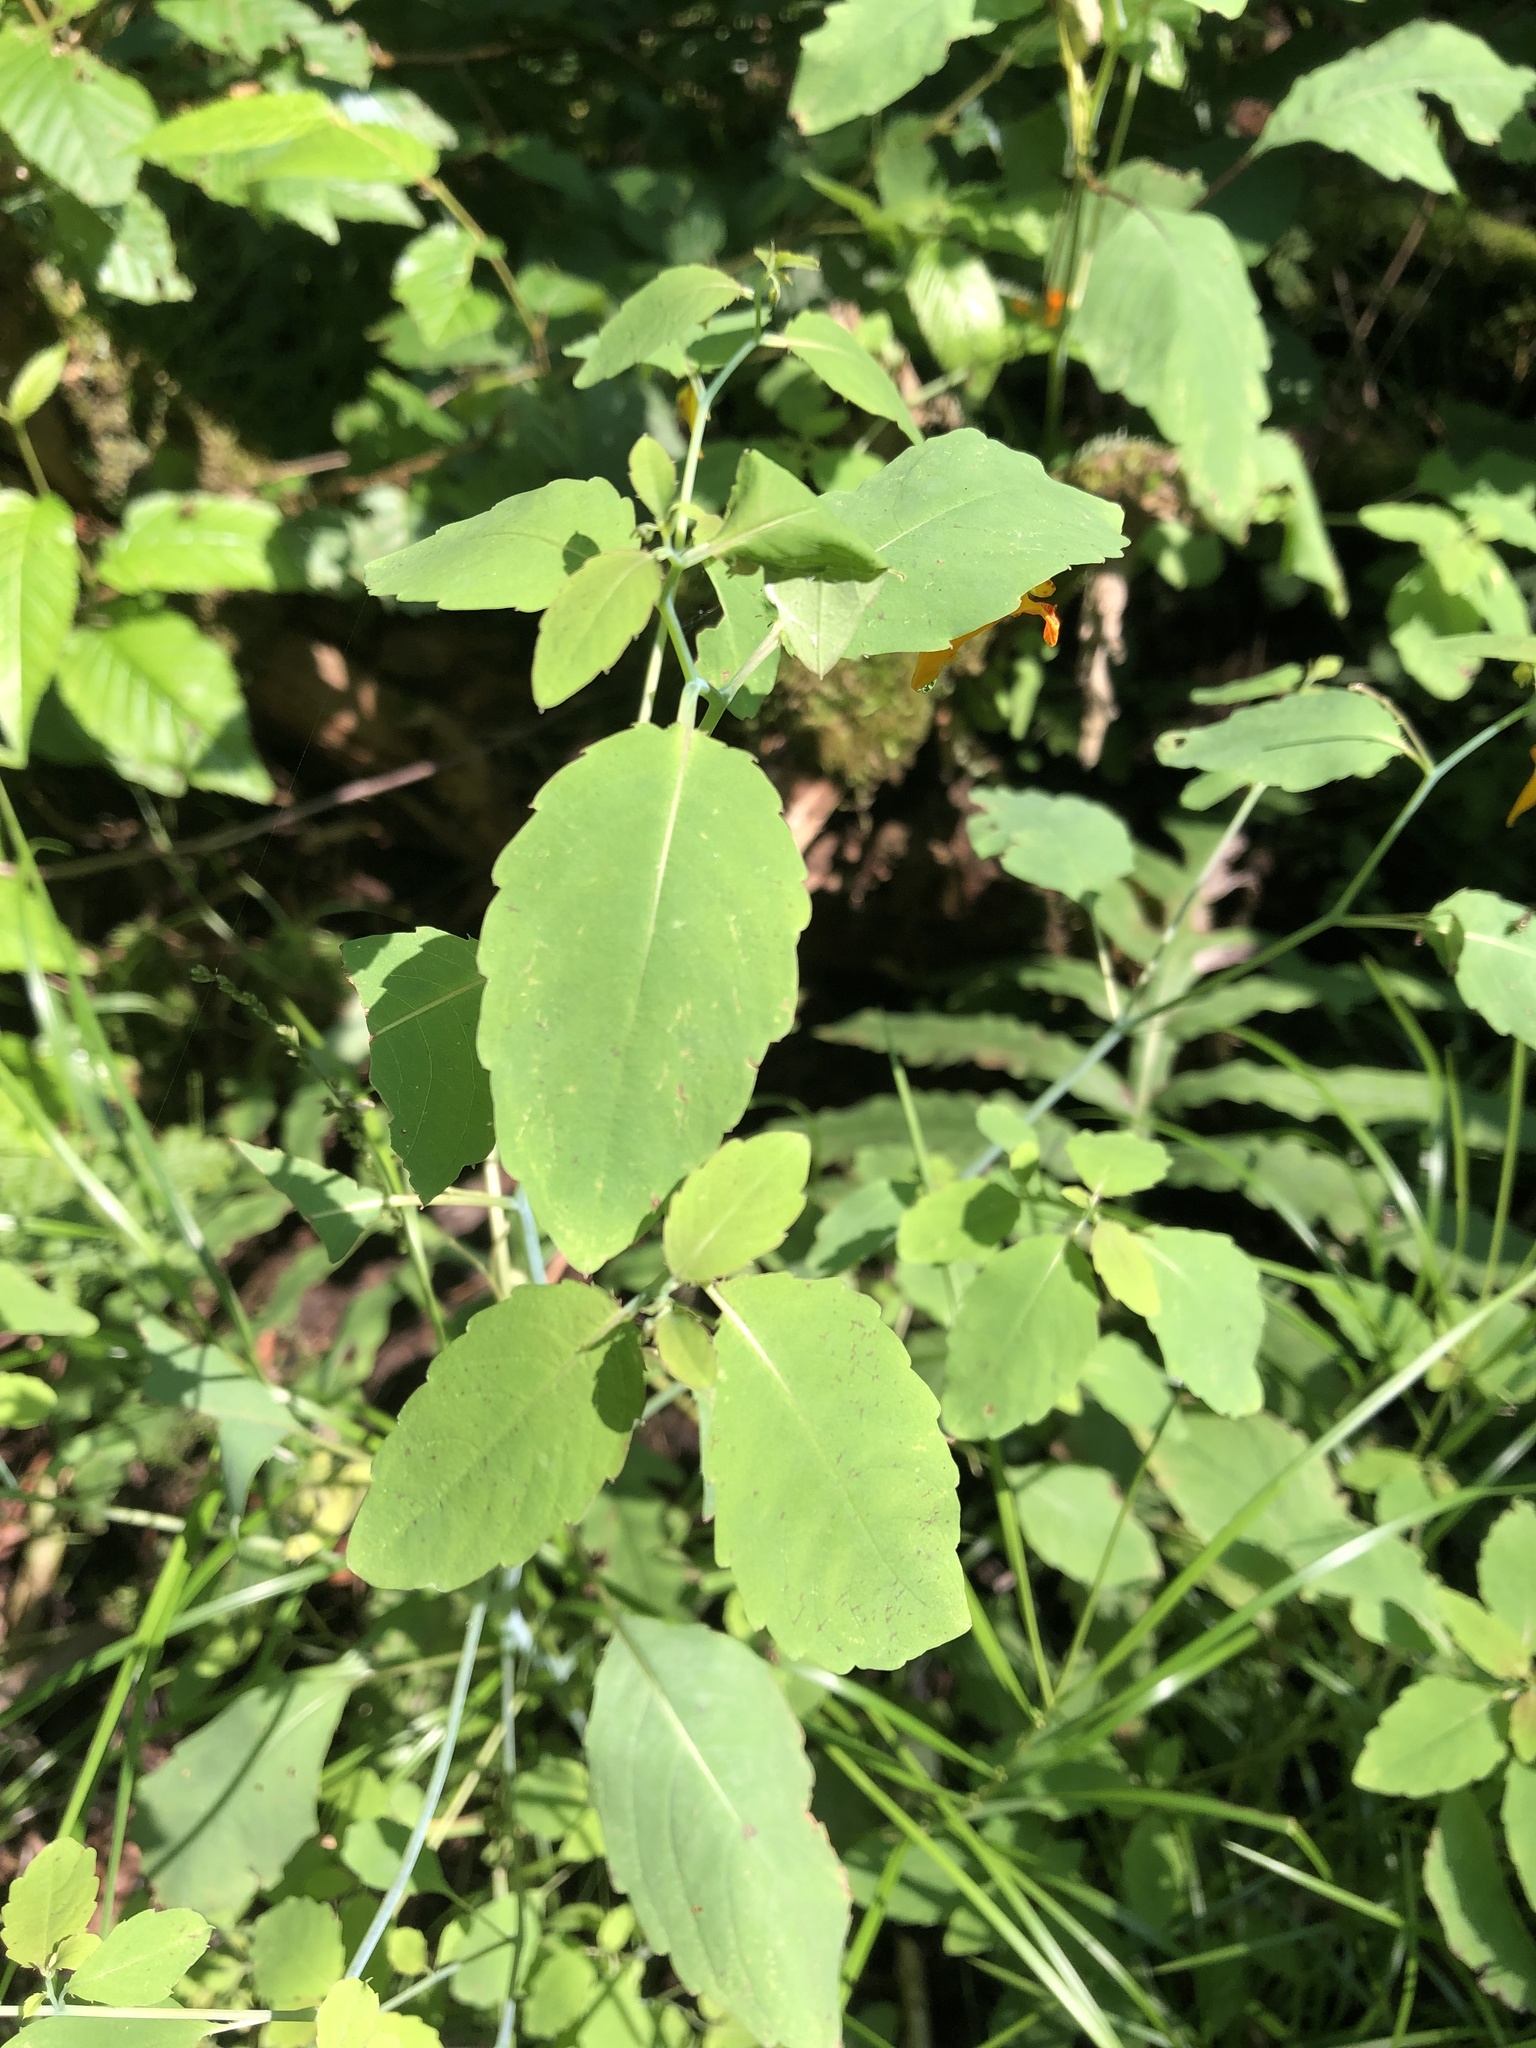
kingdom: Plantae
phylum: Tracheophyta
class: Magnoliopsida
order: Ericales
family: Balsaminaceae
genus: Impatiens
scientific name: Impatiens capensis
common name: Orange balsam
